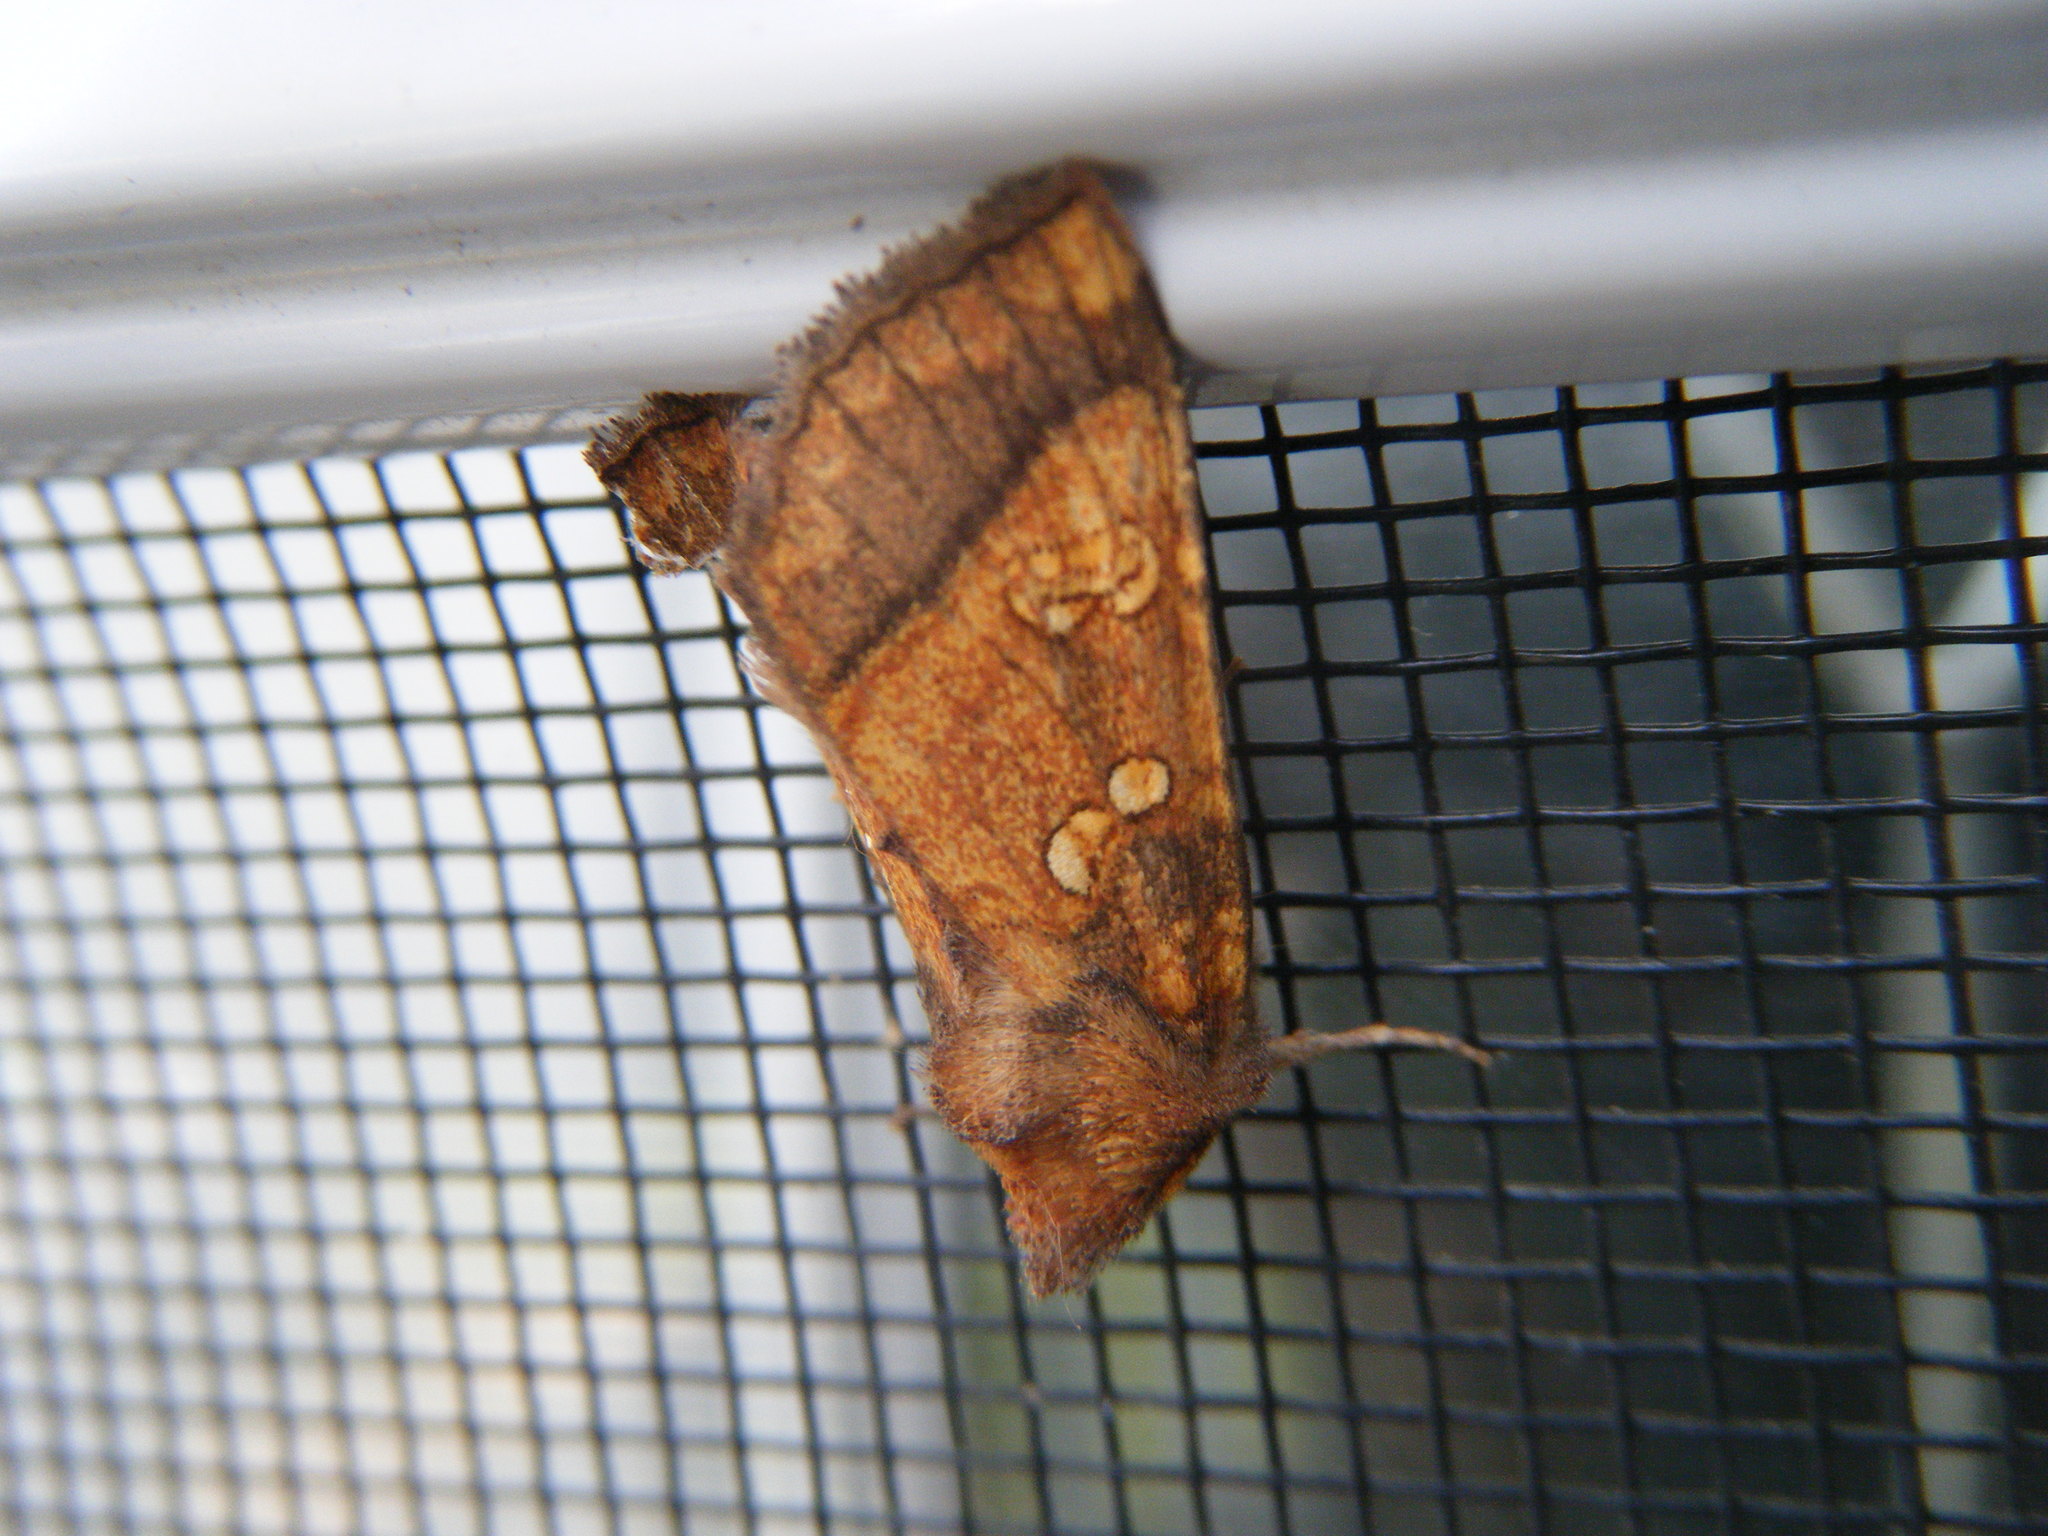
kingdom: Animalia
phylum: Arthropoda
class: Insecta
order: Lepidoptera
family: Noctuidae
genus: Papaipema
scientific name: Papaipema harrisii
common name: Heracleum stem borer moth
